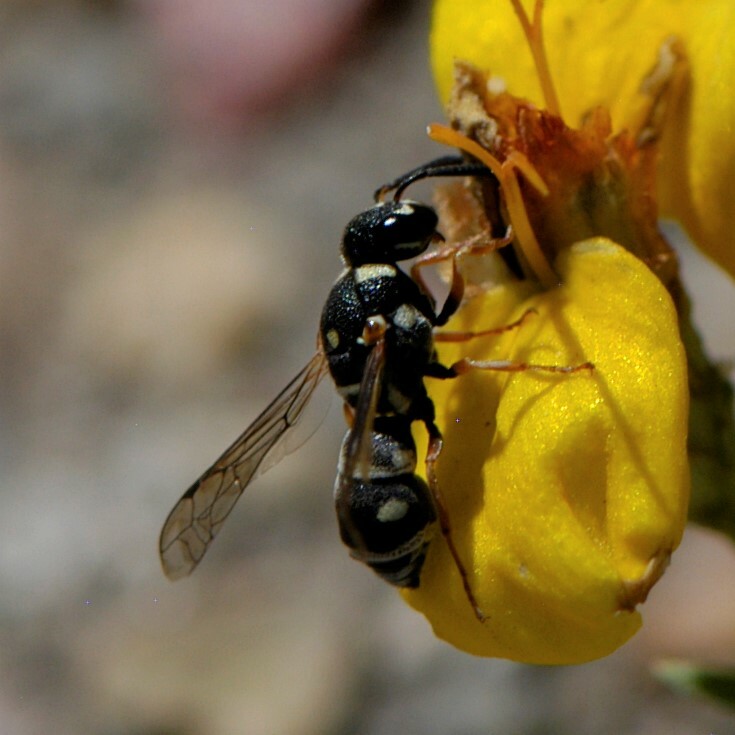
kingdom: Animalia
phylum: Arthropoda
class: Insecta
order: Hymenoptera
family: Eumenidae
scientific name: Eumenidae
